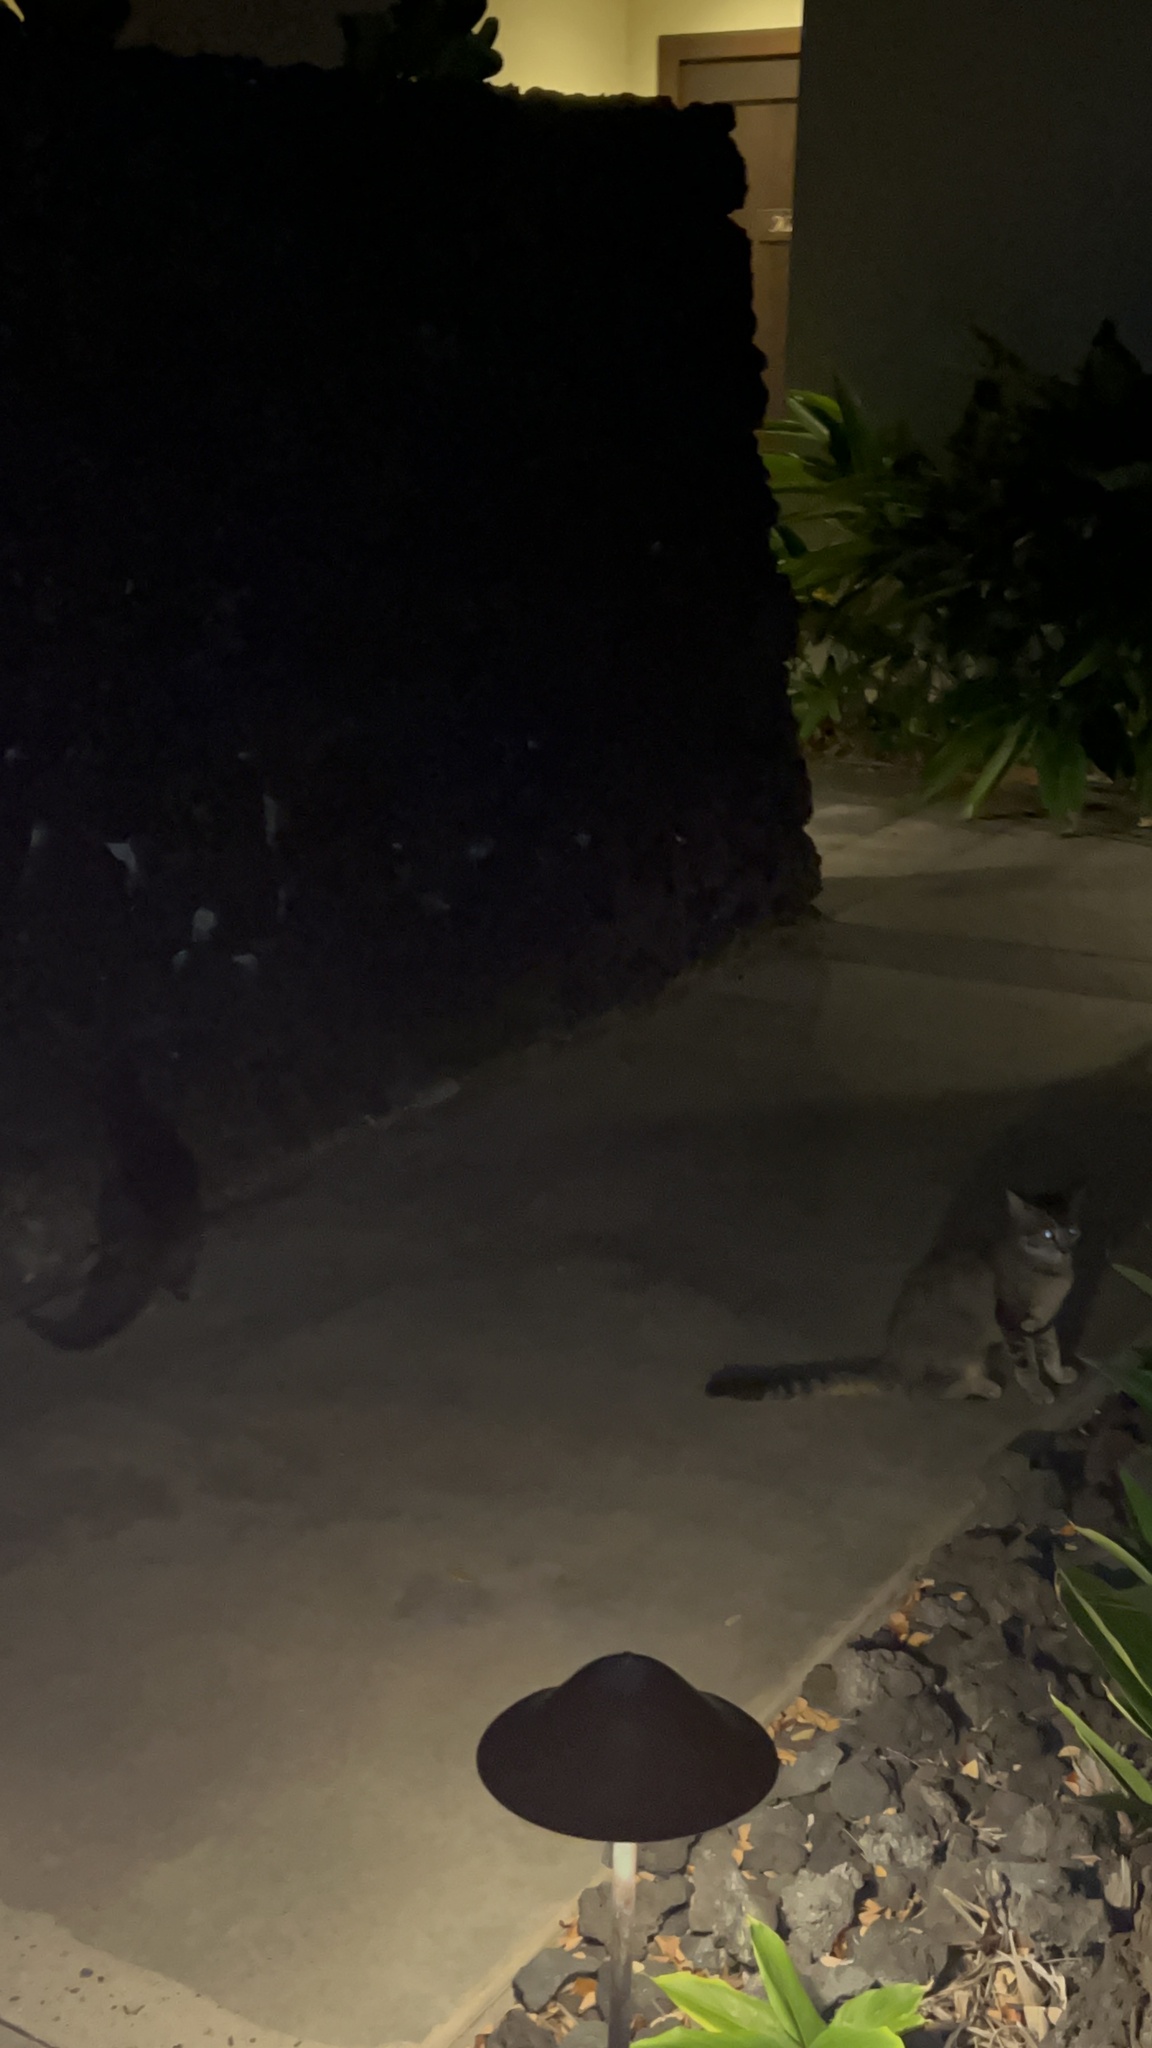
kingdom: Animalia
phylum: Chordata
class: Mammalia
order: Carnivora
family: Felidae
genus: Felis
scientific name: Felis catus
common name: Domestic cat
